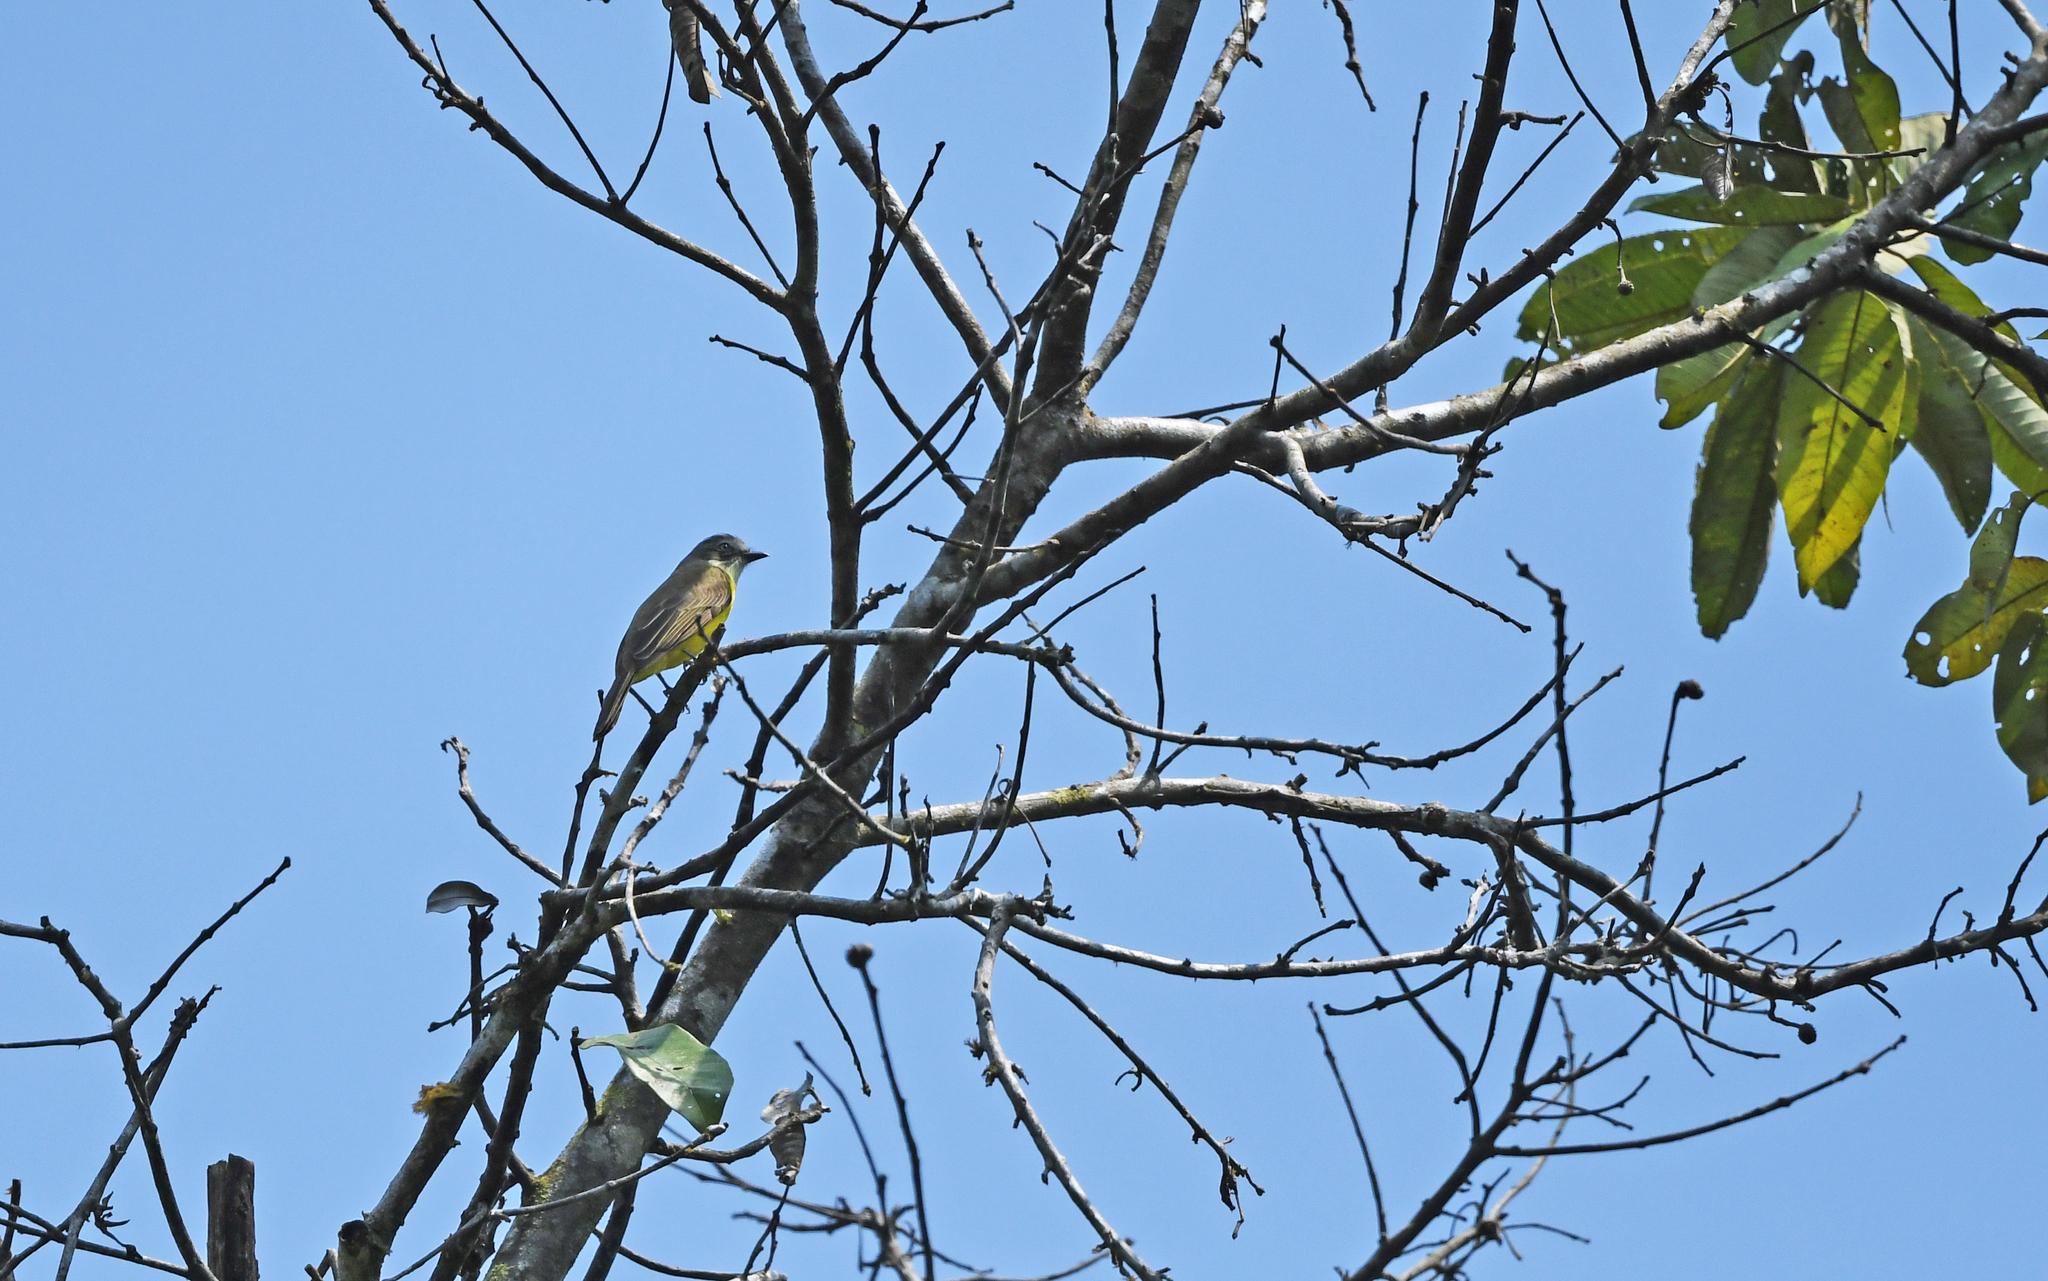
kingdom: Animalia
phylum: Chordata
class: Aves
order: Passeriformes
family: Tyrannidae
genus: Myiozetetes
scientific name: Myiozetetes granadensis
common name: Gray-capped flycatcher
